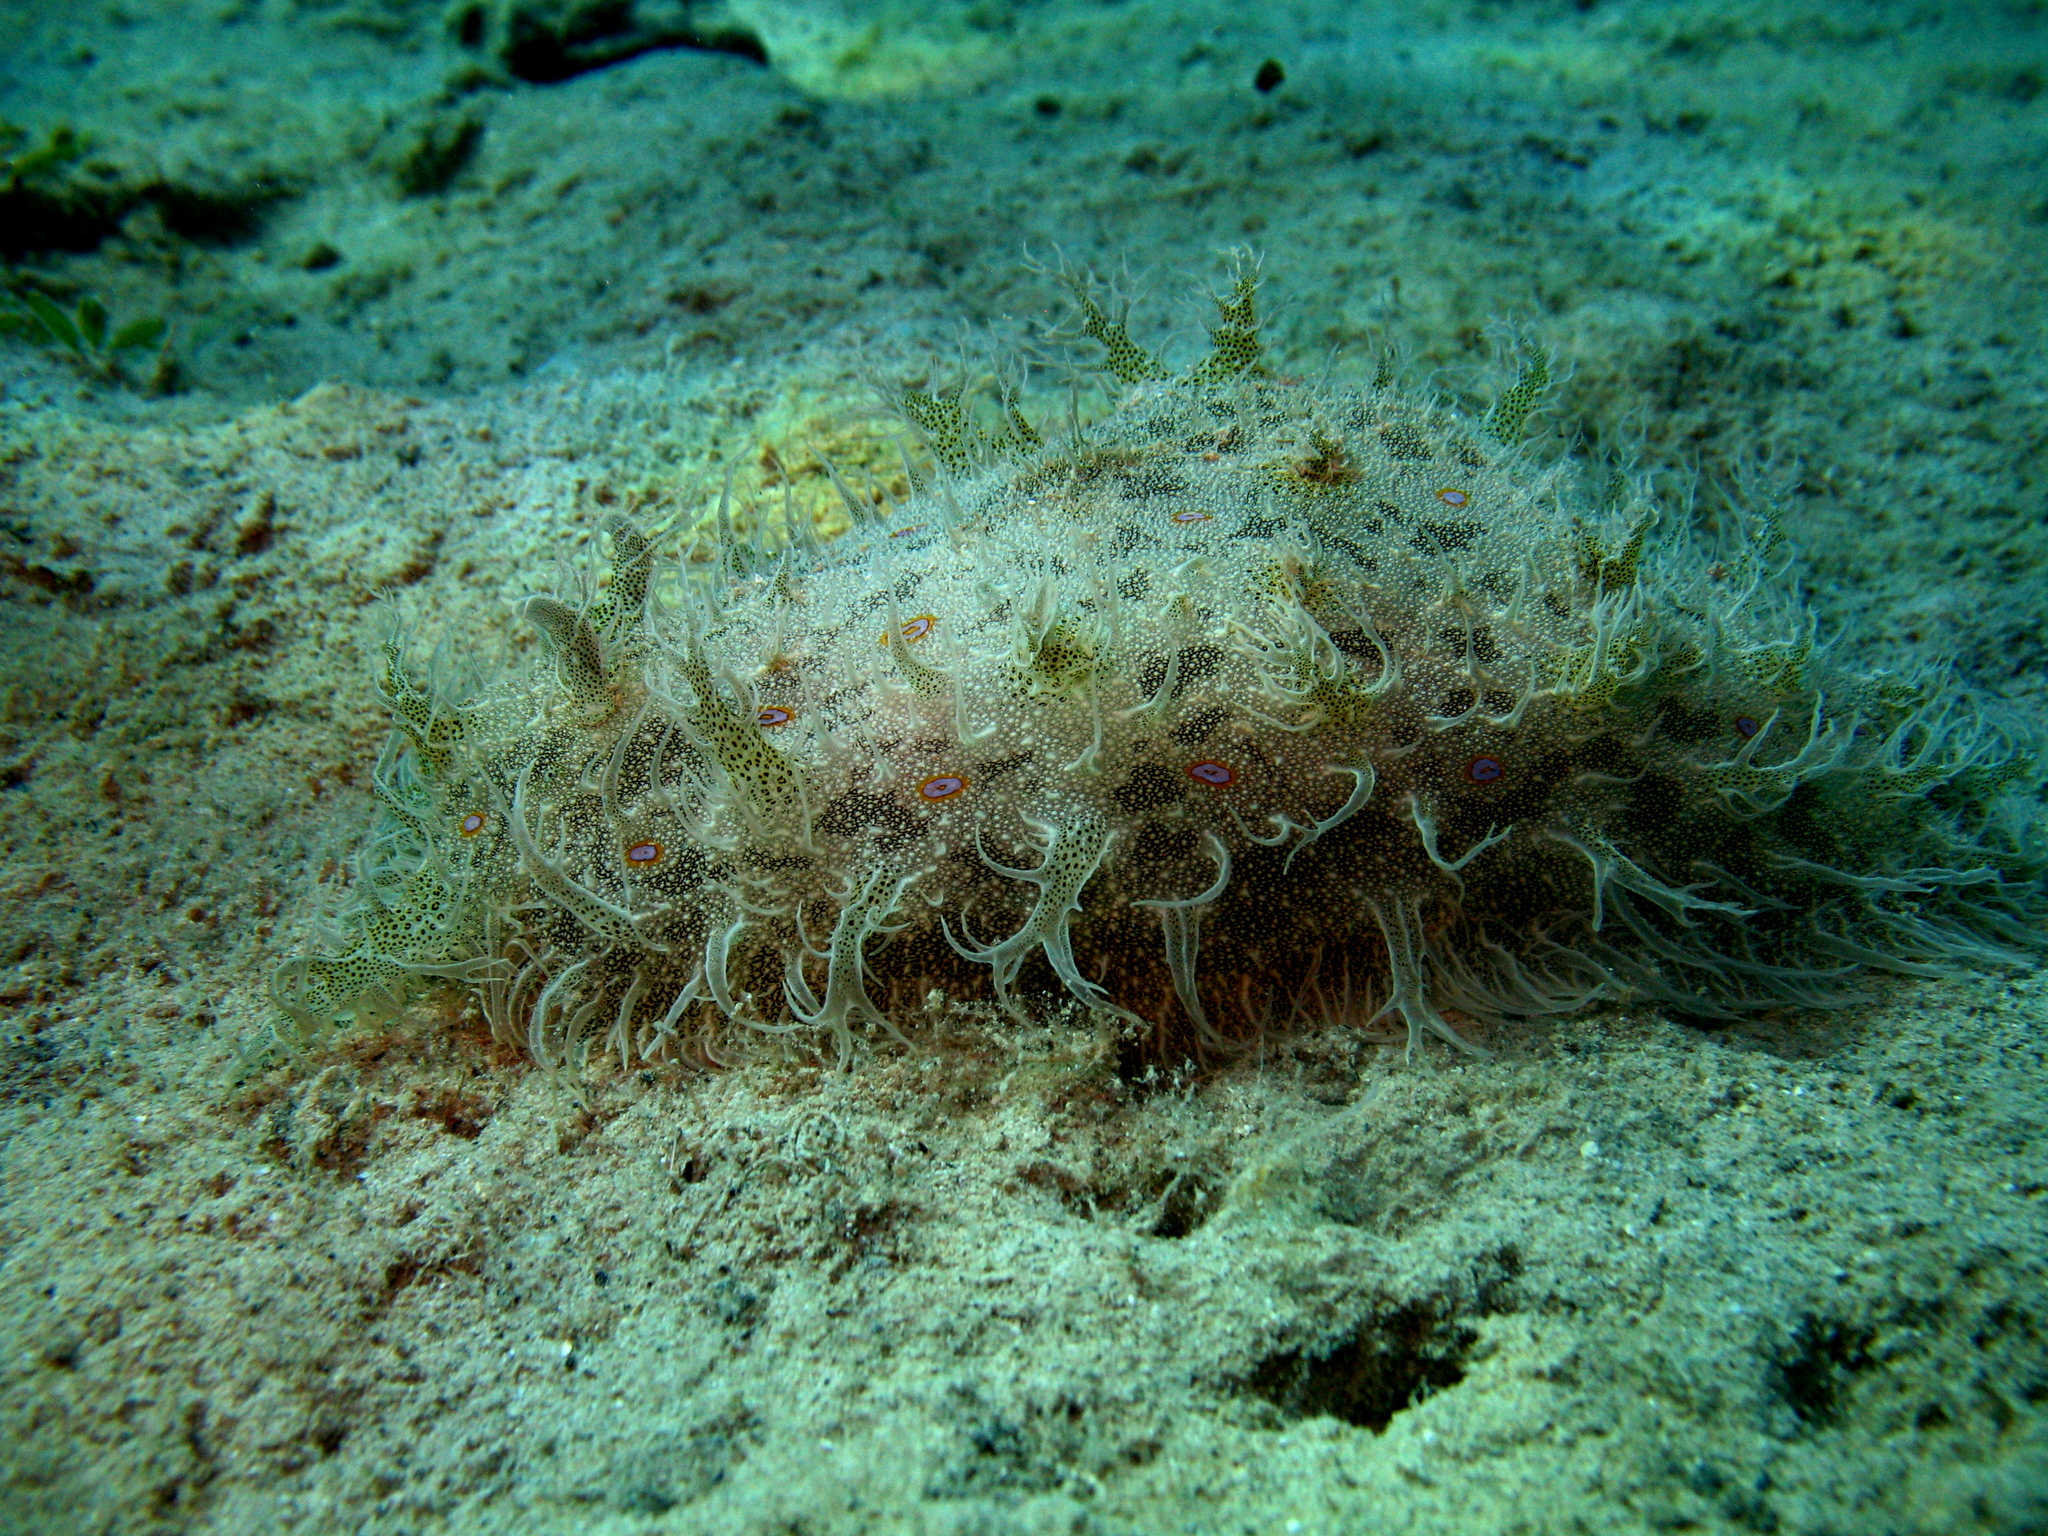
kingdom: Animalia
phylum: Mollusca
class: Gastropoda
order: Aplysiida
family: Aplysiidae
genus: Bursatella
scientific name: Bursatella leachii
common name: Shaggy sea hare
